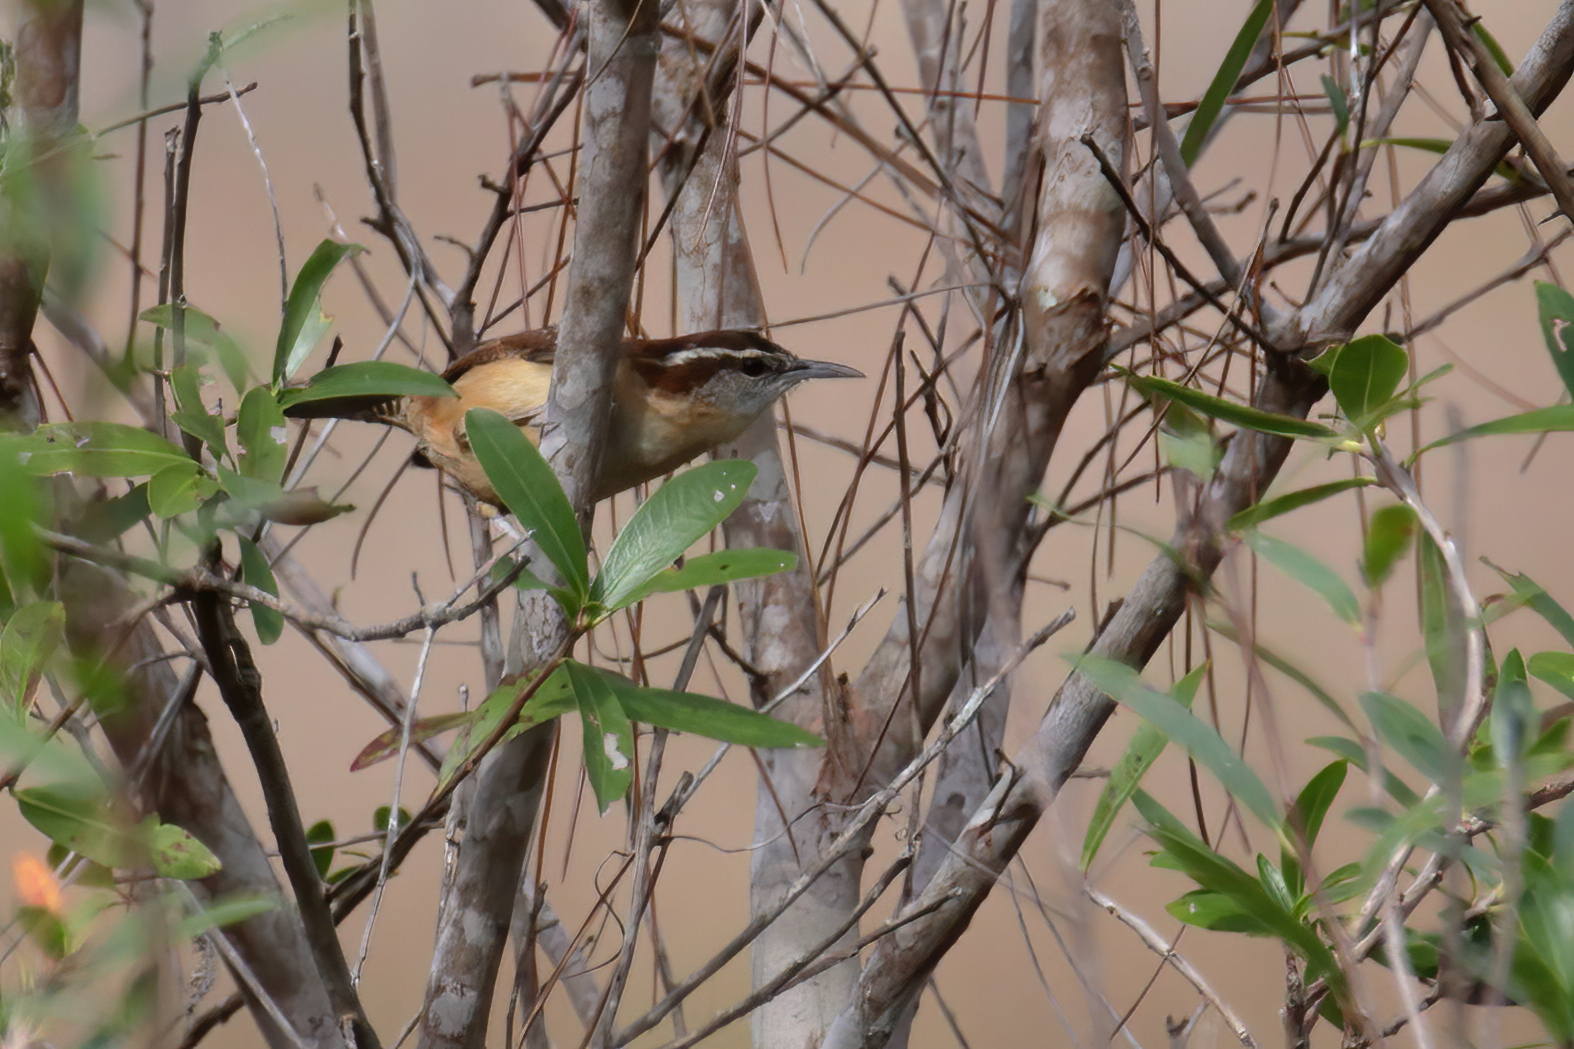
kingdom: Animalia
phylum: Chordata
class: Aves
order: Passeriformes
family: Troglodytidae
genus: Thryothorus
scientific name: Thryothorus ludovicianus
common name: Carolina wren
